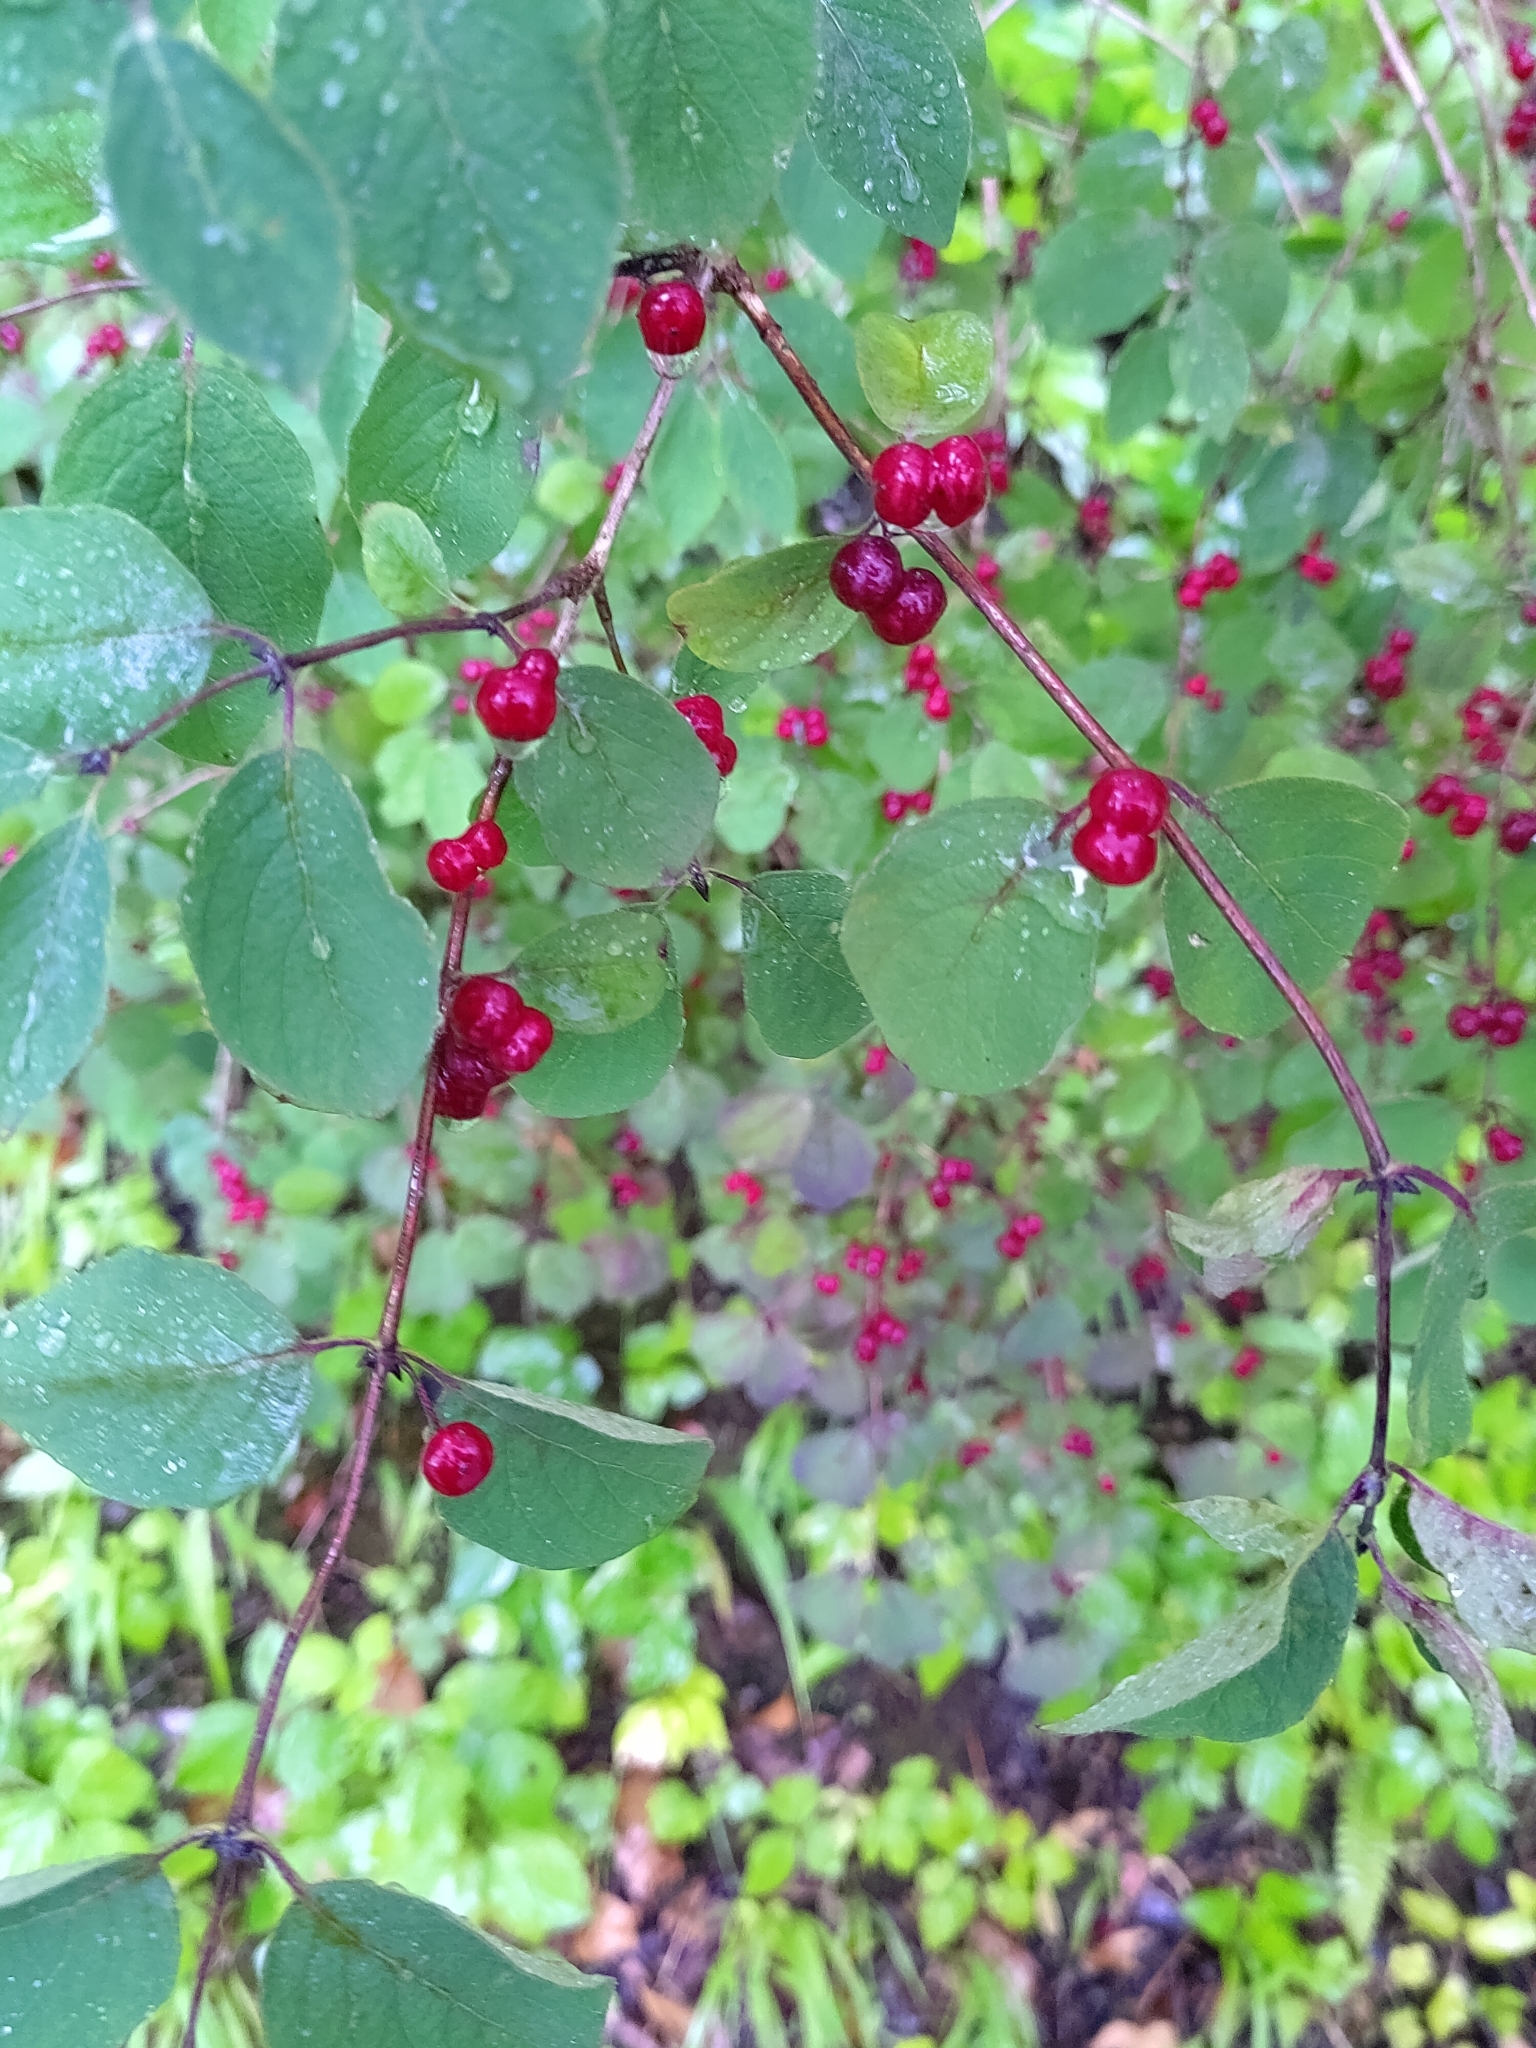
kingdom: Plantae
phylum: Tracheophyta
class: Magnoliopsida
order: Dipsacales
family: Caprifoliaceae
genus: Lonicera
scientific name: Lonicera xylosteum
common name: Fly honeysuckle
